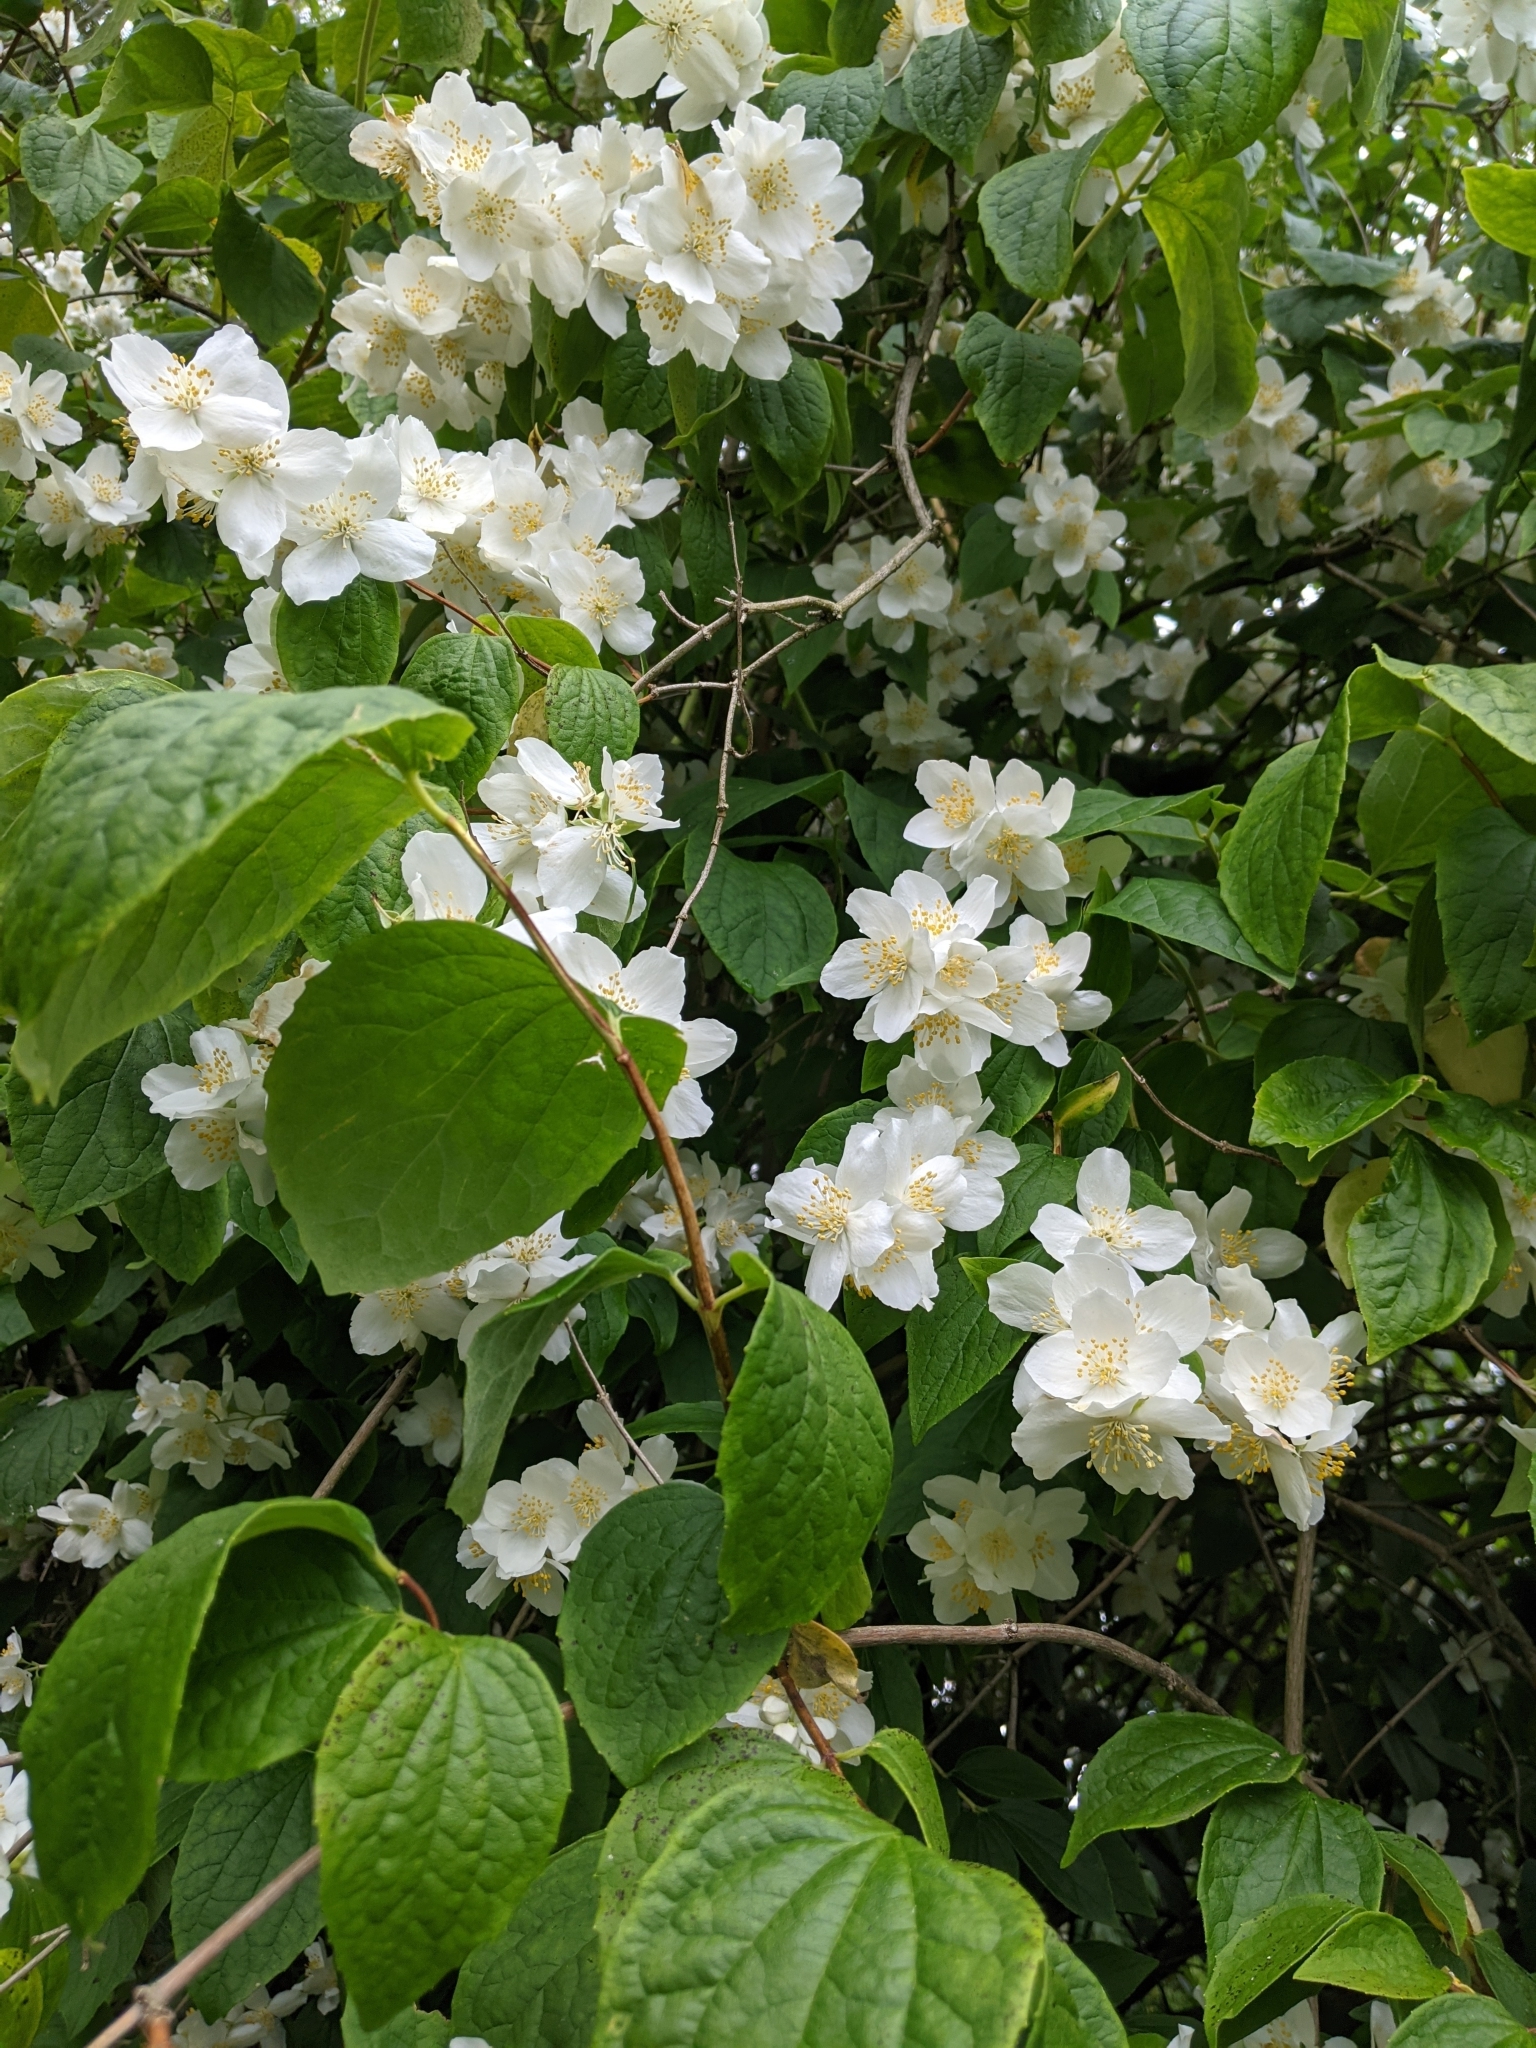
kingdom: Plantae
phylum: Tracheophyta
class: Magnoliopsida
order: Cornales
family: Hydrangeaceae
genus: Philadelphus
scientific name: Philadelphus coronarius
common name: Mock orange
